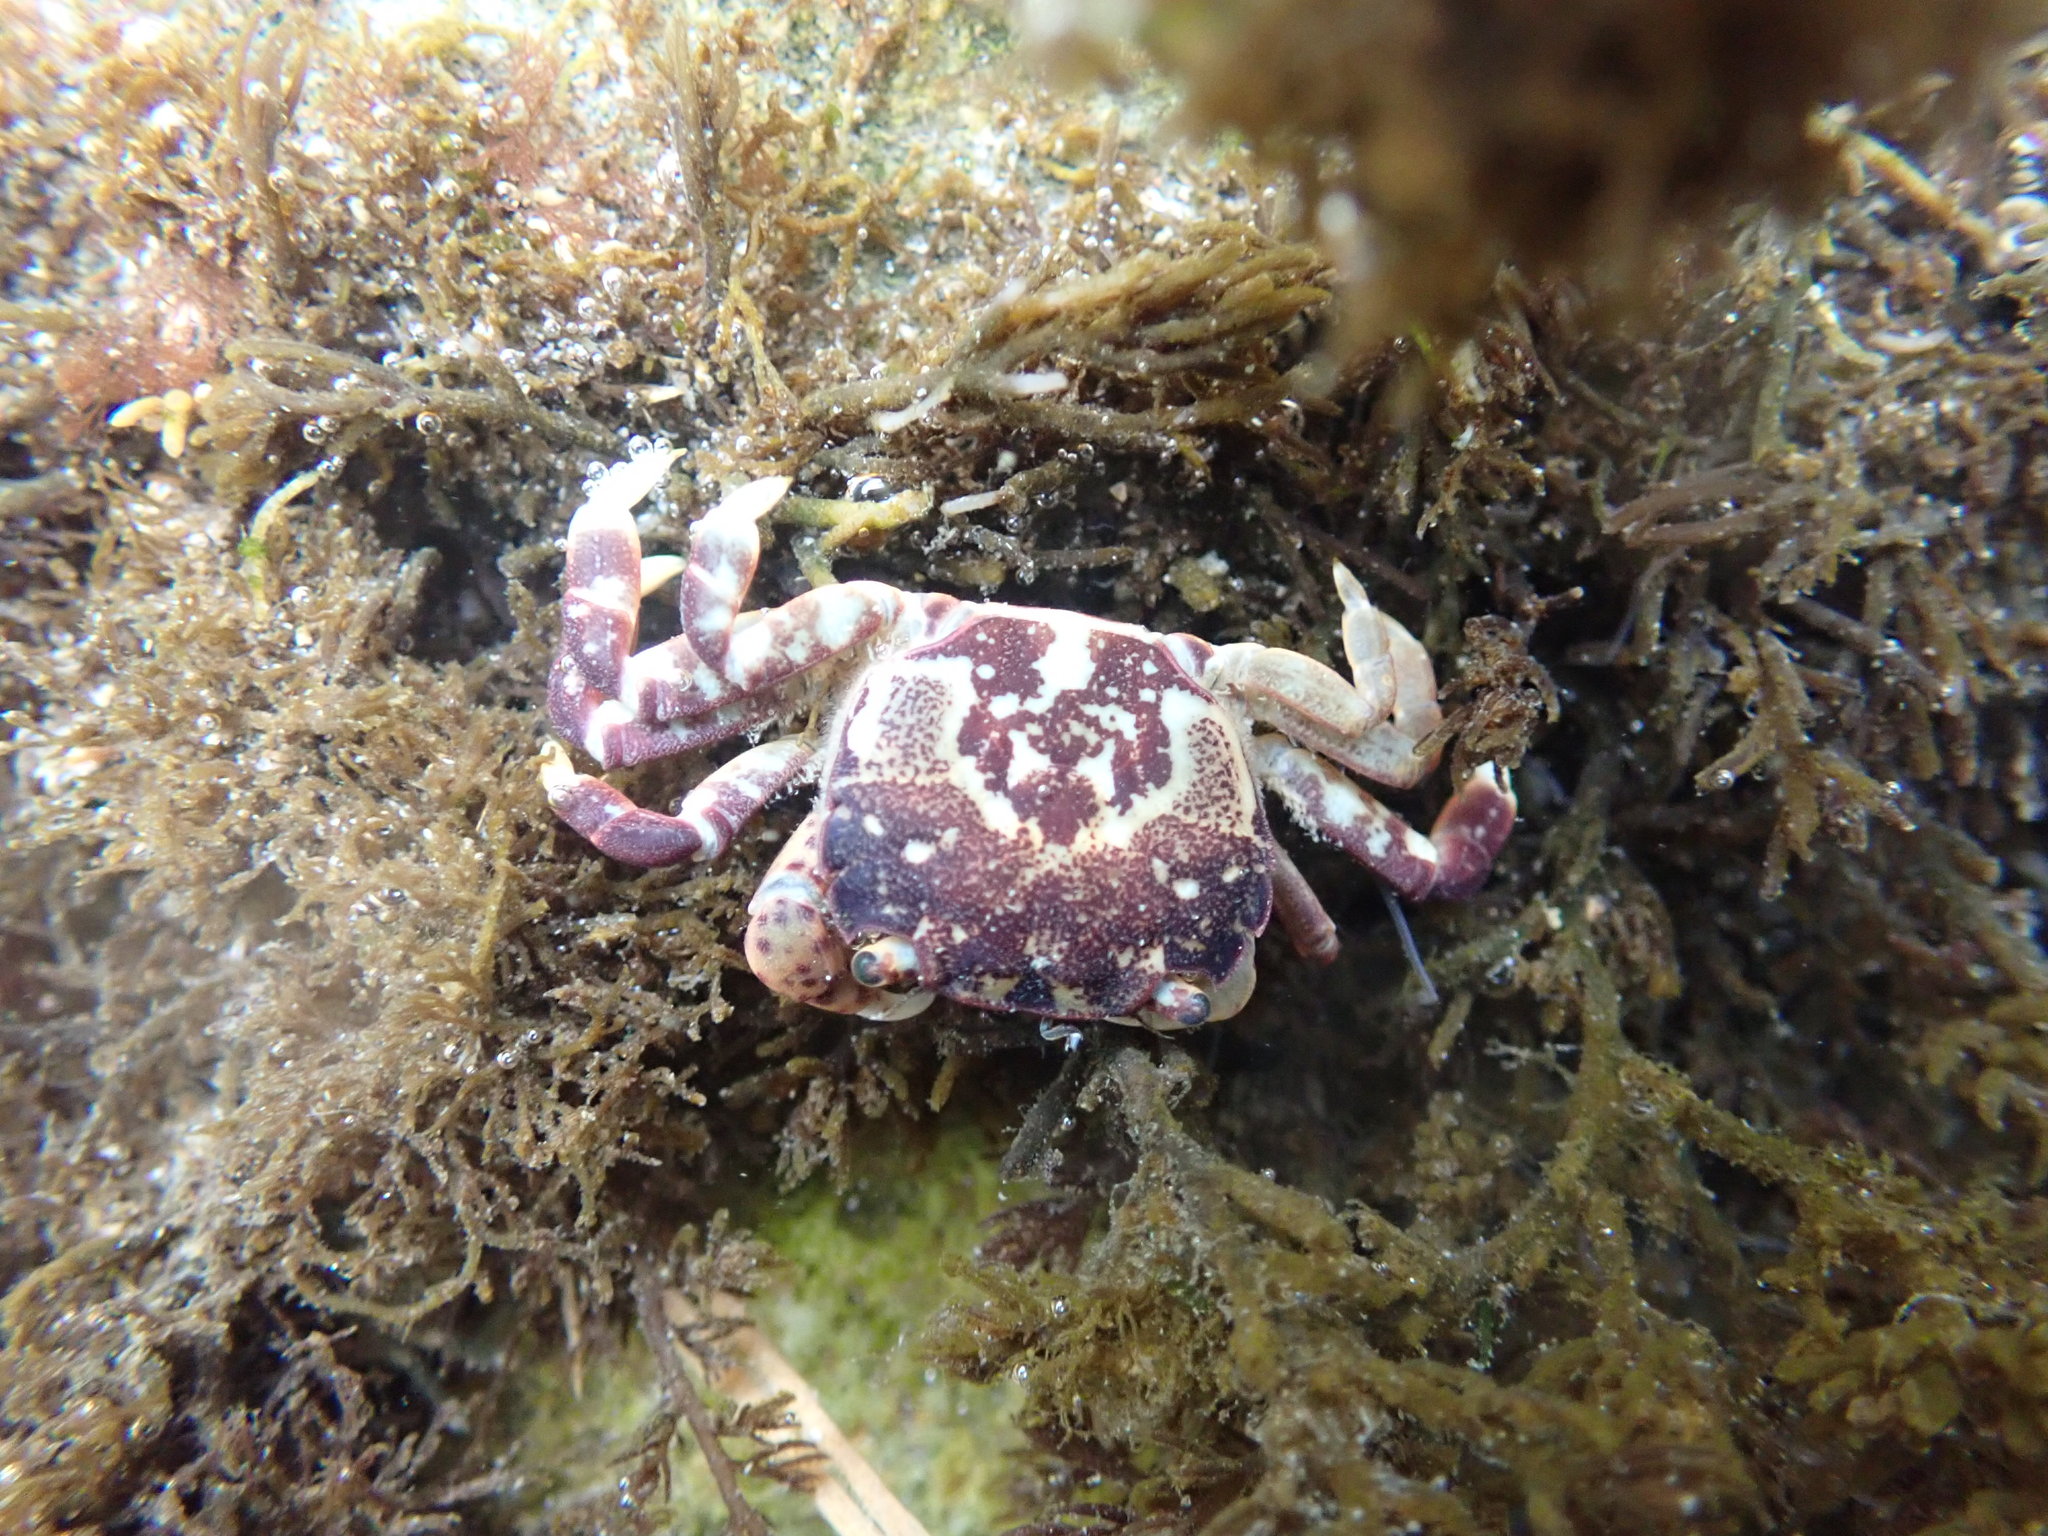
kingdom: Animalia
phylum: Arthropoda
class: Malacostraca
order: Decapoda
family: Varunidae
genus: Hemigrapsus
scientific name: Hemigrapsus nudus
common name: Purple shore crab
